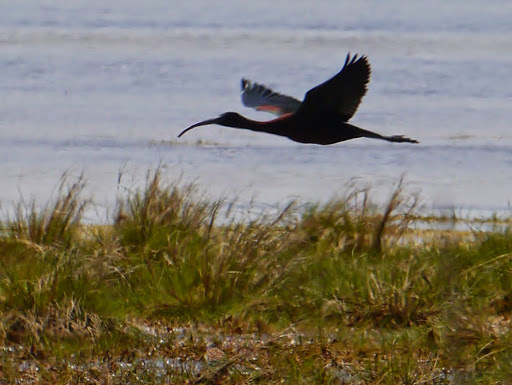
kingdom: Animalia
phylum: Chordata
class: Aves
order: Pelecaniformes
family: Threskiornithidae
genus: Plegadis
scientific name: Plegadis falcinellus
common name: Glossy ibis
